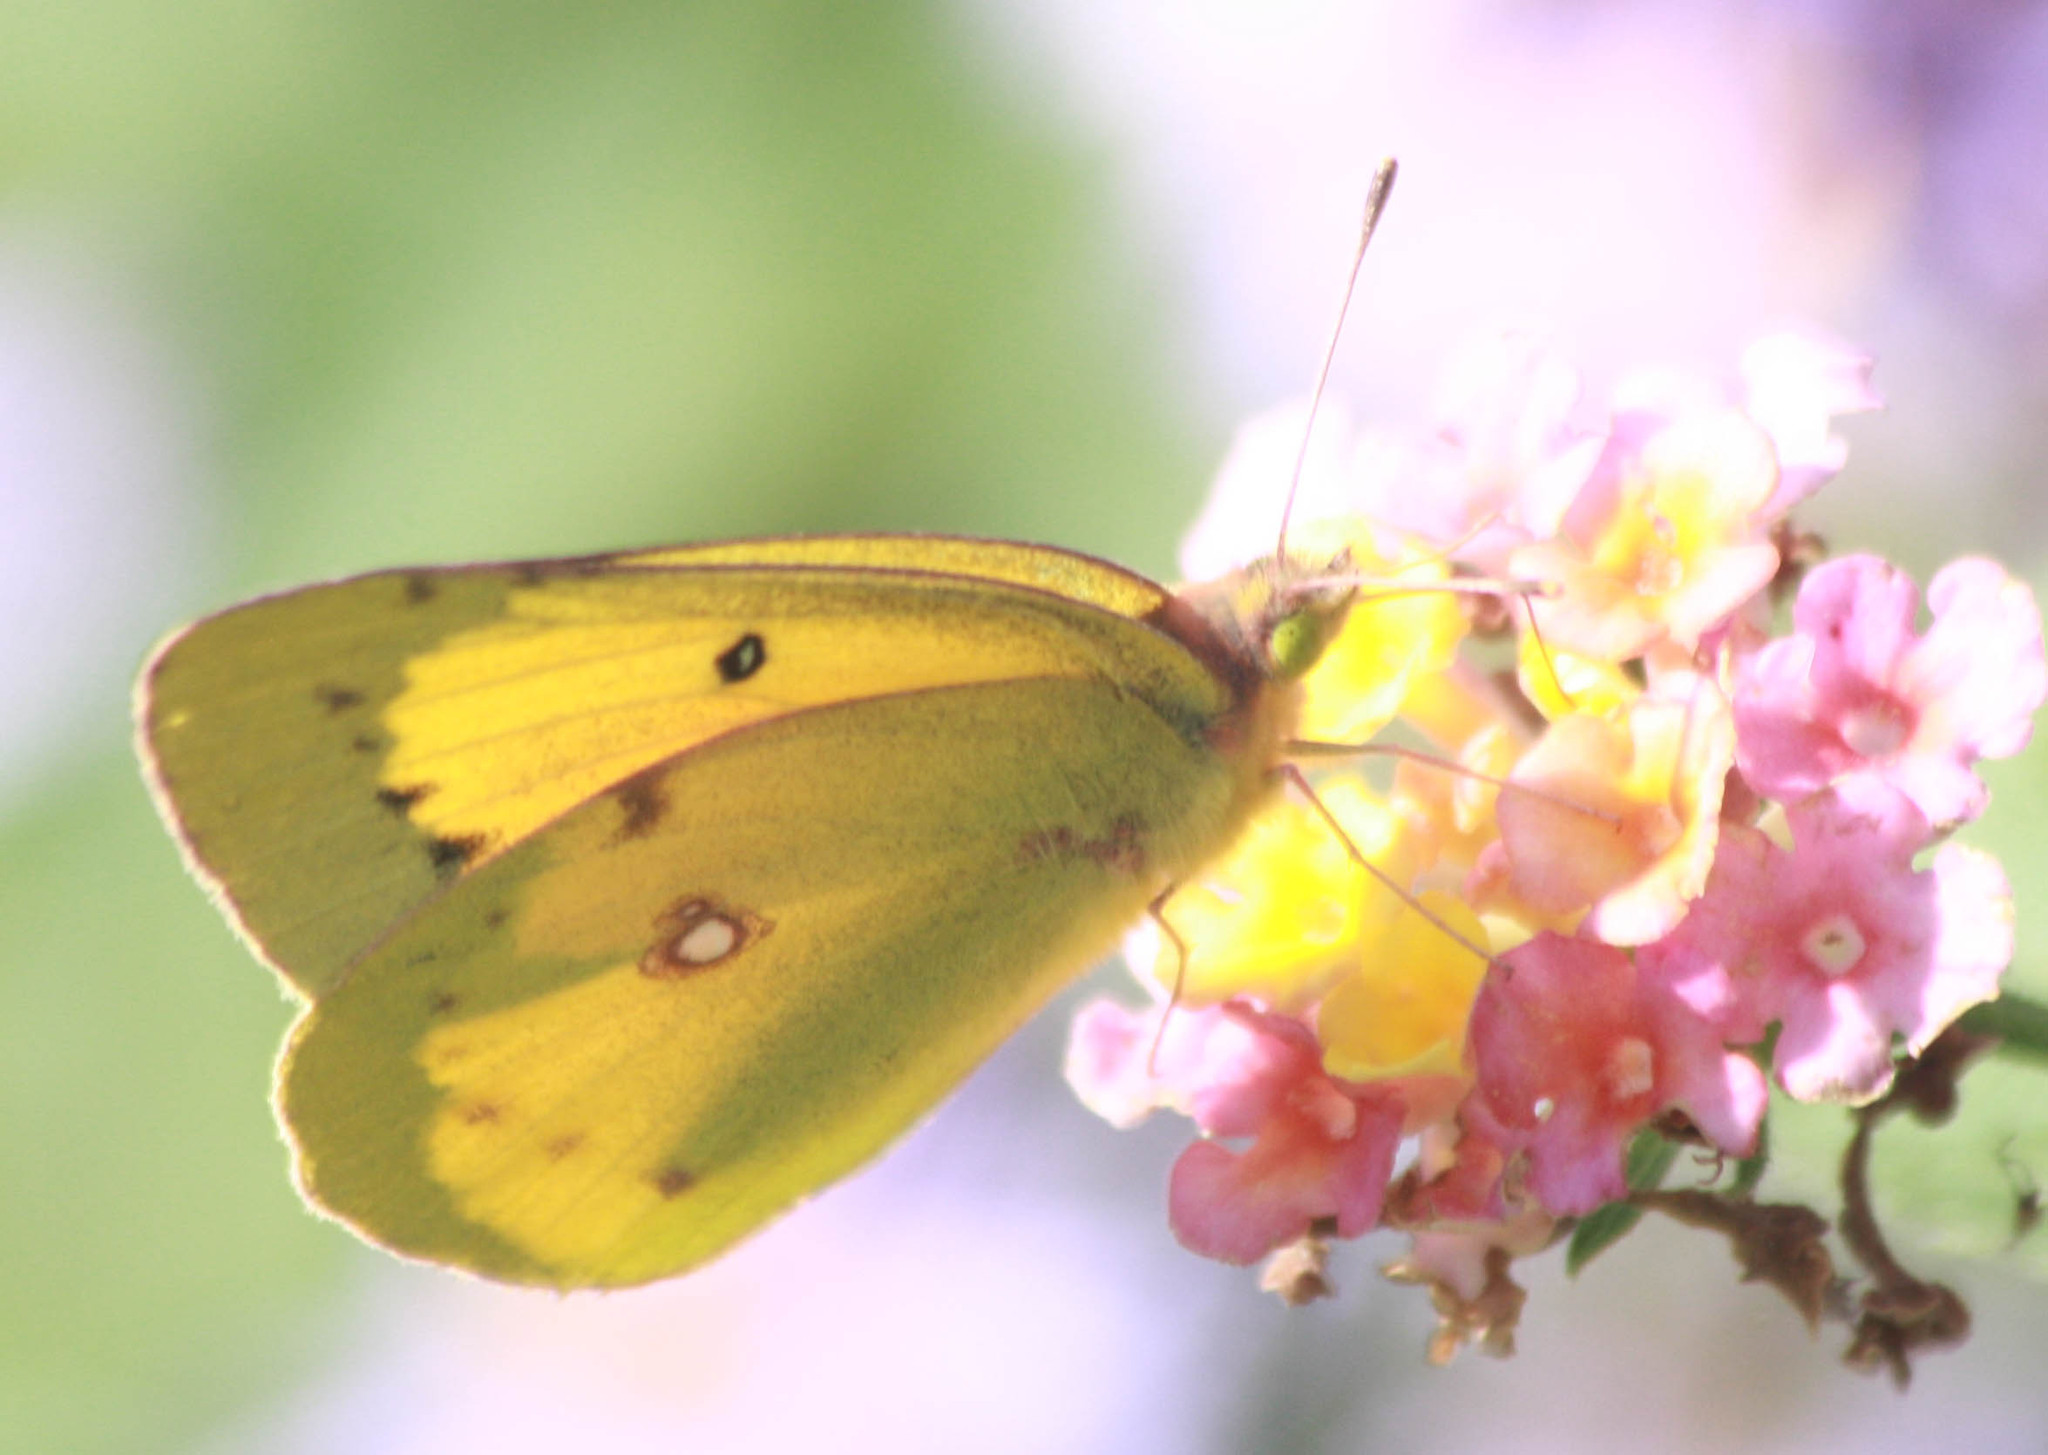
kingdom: Animalia
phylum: Arthropoda
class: Insecta
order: Lepidoptera
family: Pieridae
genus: Colias
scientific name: Colias eurytheme
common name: Alfalfa butterfly
